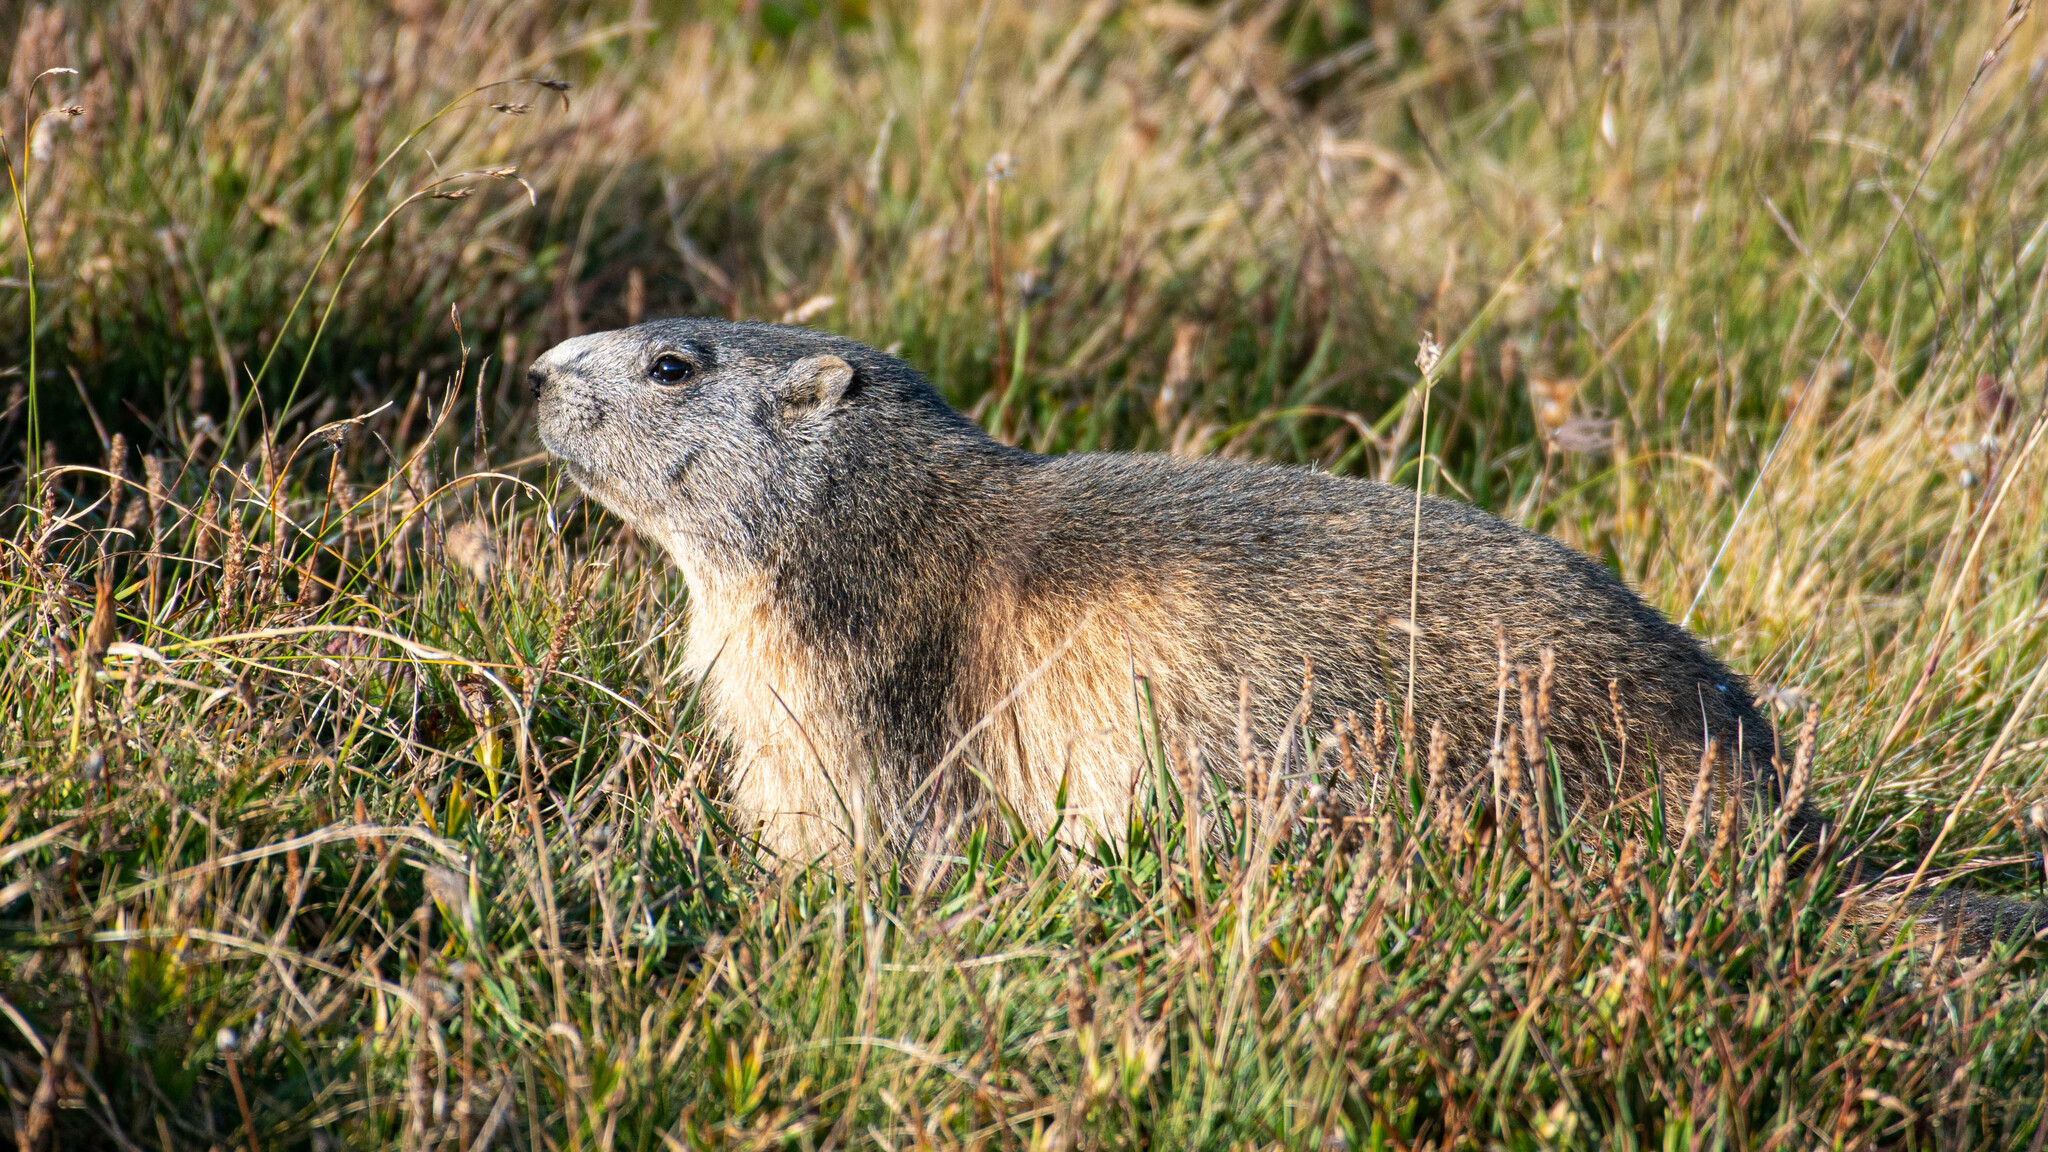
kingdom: Animalia
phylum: Chordata
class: Mammalia
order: Rodentia
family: Sciuridae
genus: Marmota
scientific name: Marmota marmota
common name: Alpine marmot
